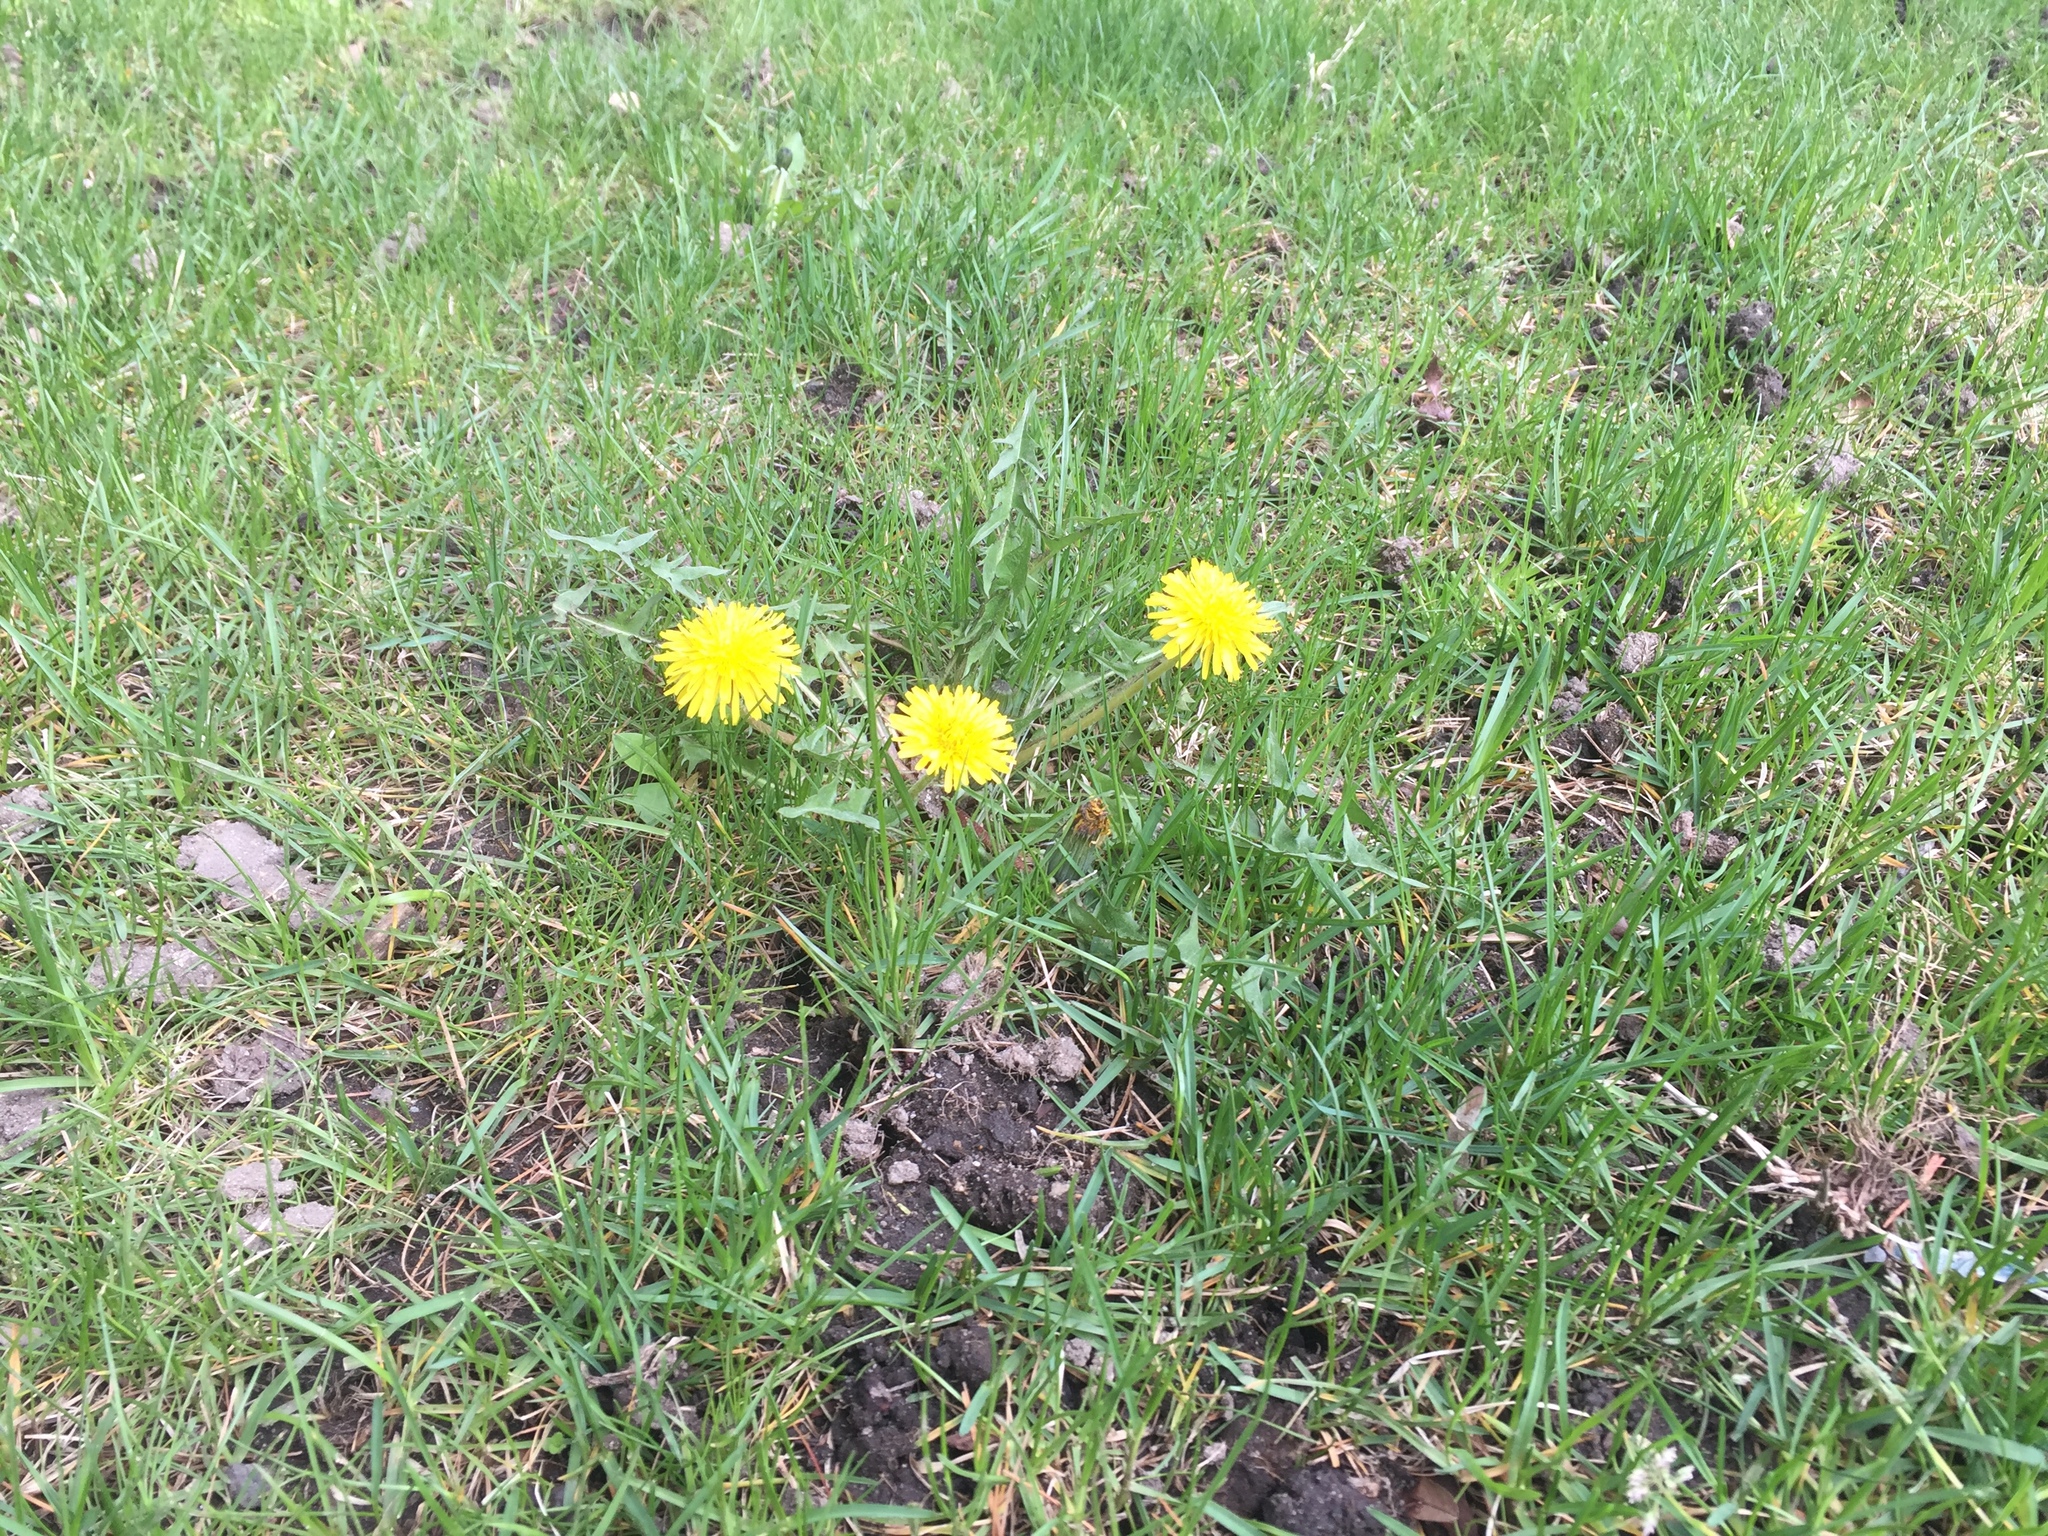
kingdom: Plantae
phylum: Tracheophyta
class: Magnoliopsida
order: Asterales
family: Asteraceae
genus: Taraxacum
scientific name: Taraxacum officinale
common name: Common dandelion
